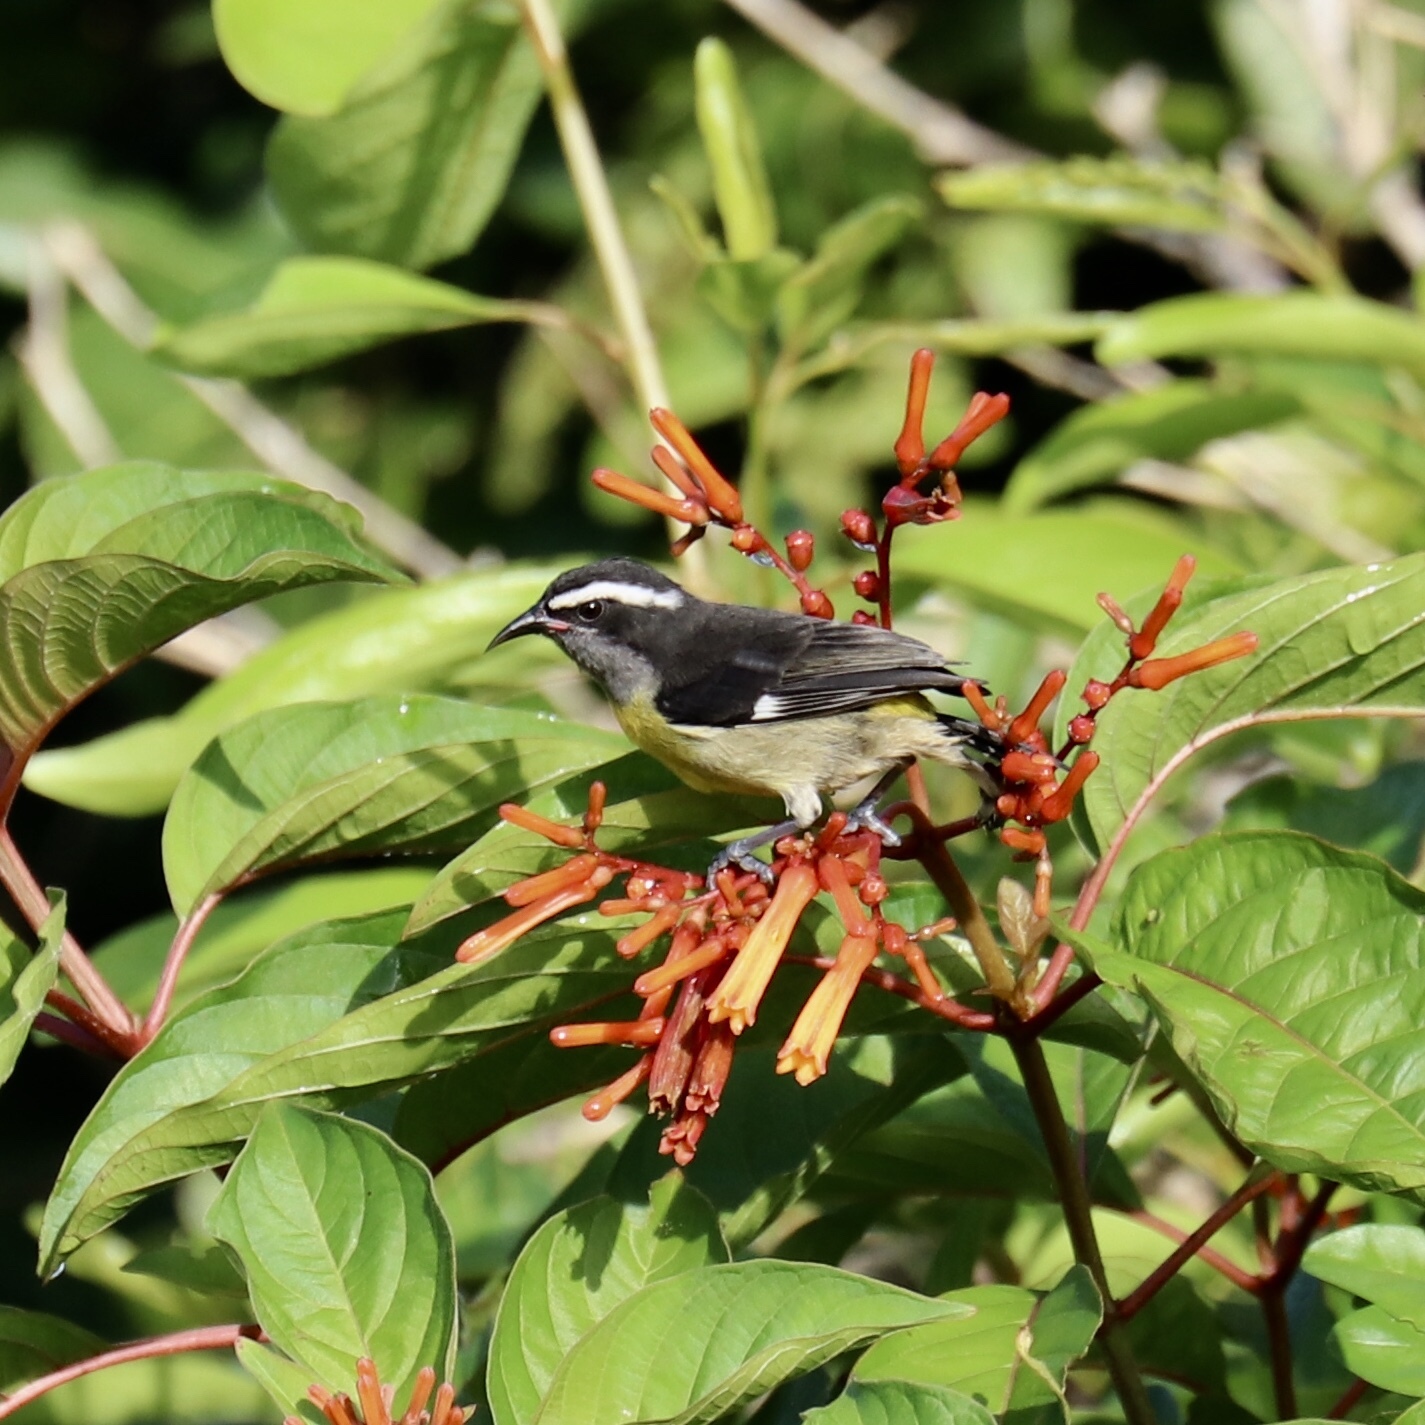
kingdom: Animalia
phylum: Chordata
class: Aves
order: Passeriformes
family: Thraupidae
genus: Coereba
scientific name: Coereba flaveola
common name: Bananaquit
